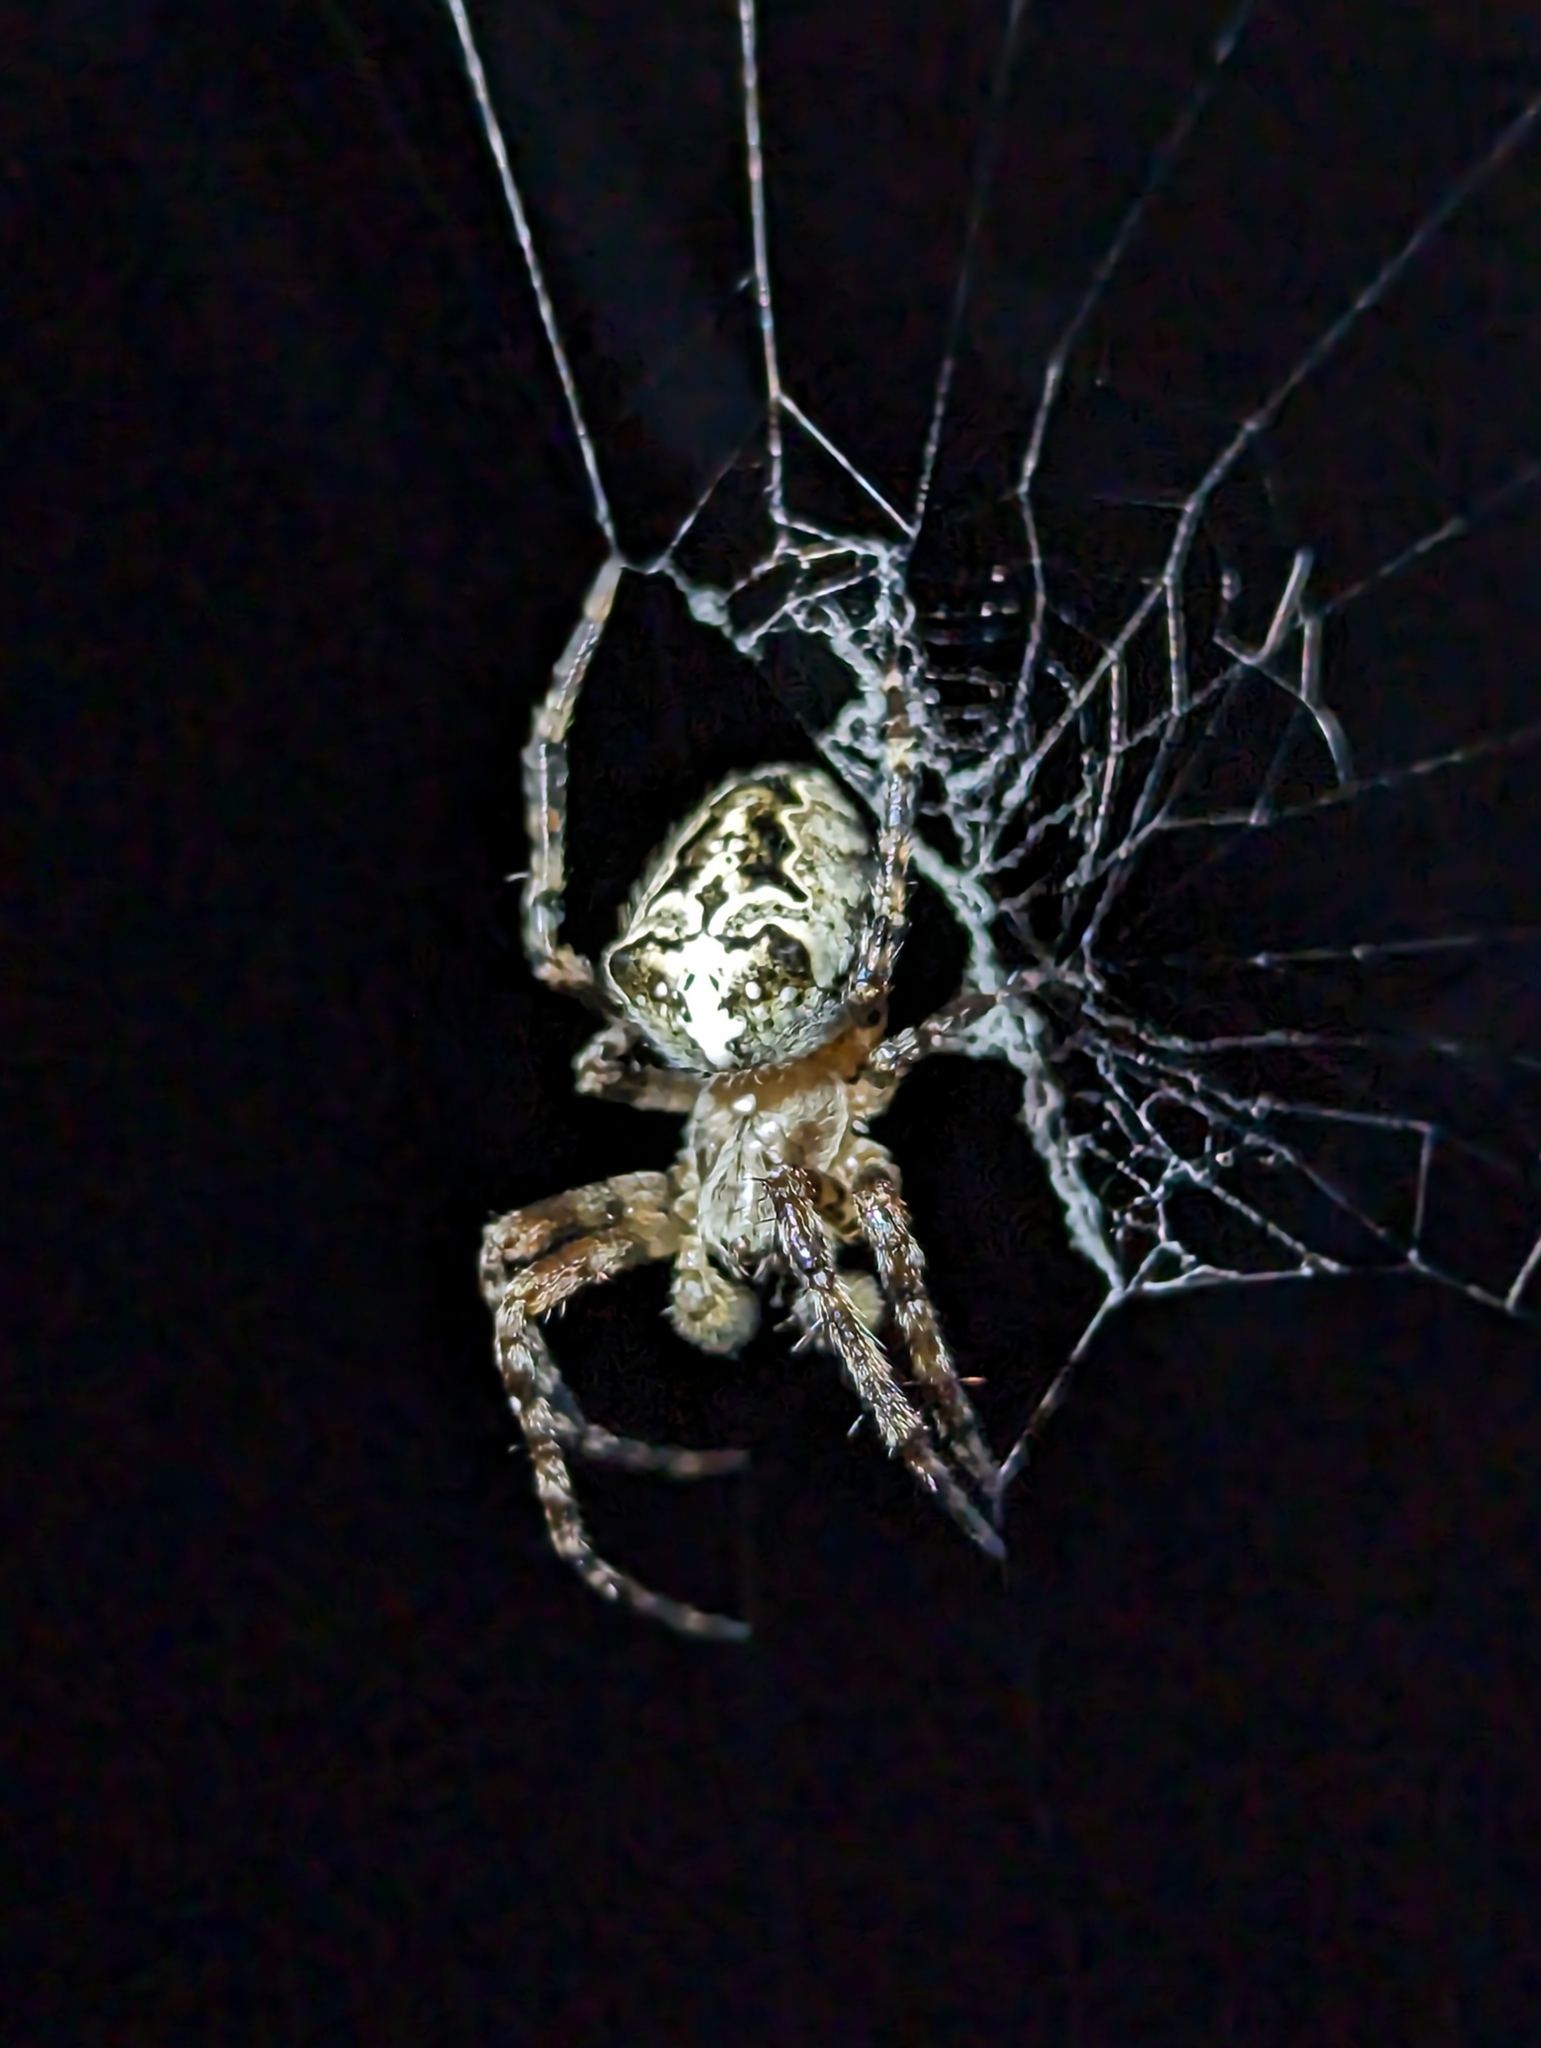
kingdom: Animalia
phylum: Arthropoda
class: Arachnida
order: Araneae
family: Araneidae
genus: Araneus
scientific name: Araneus nordmanni
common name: Nordmann's orbweaver
